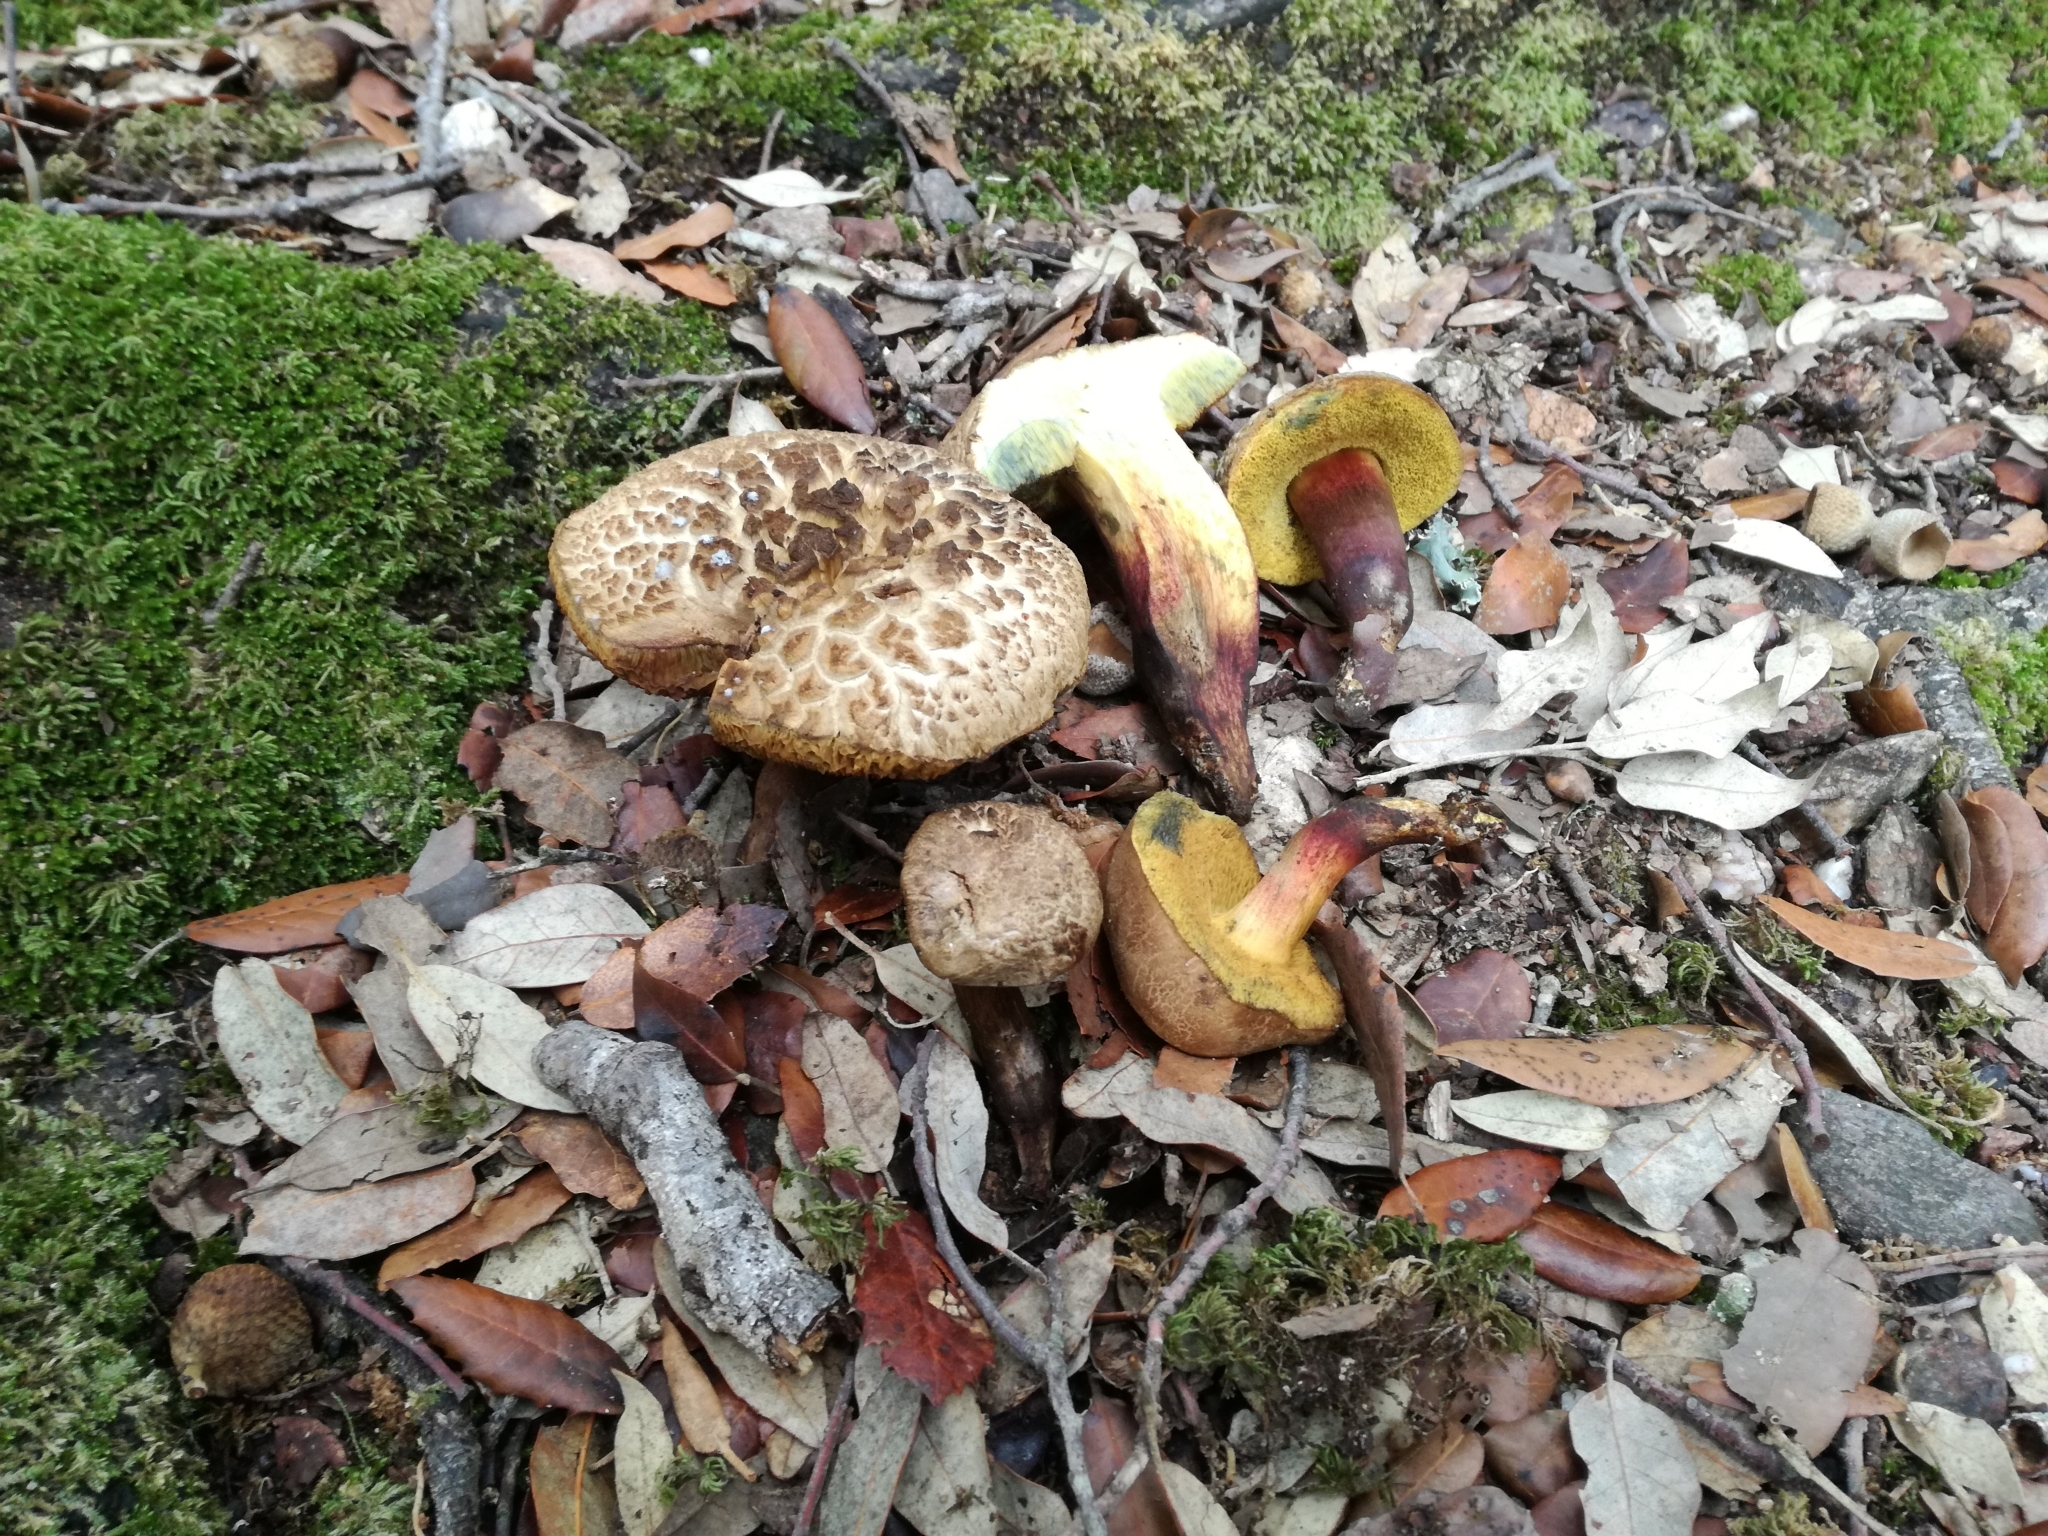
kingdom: Fungi
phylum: Basidiomycota
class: Agaricomycetes
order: Boletales
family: Boletaceae
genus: Xerocomellus
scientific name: Xerocomellus sarnarii
